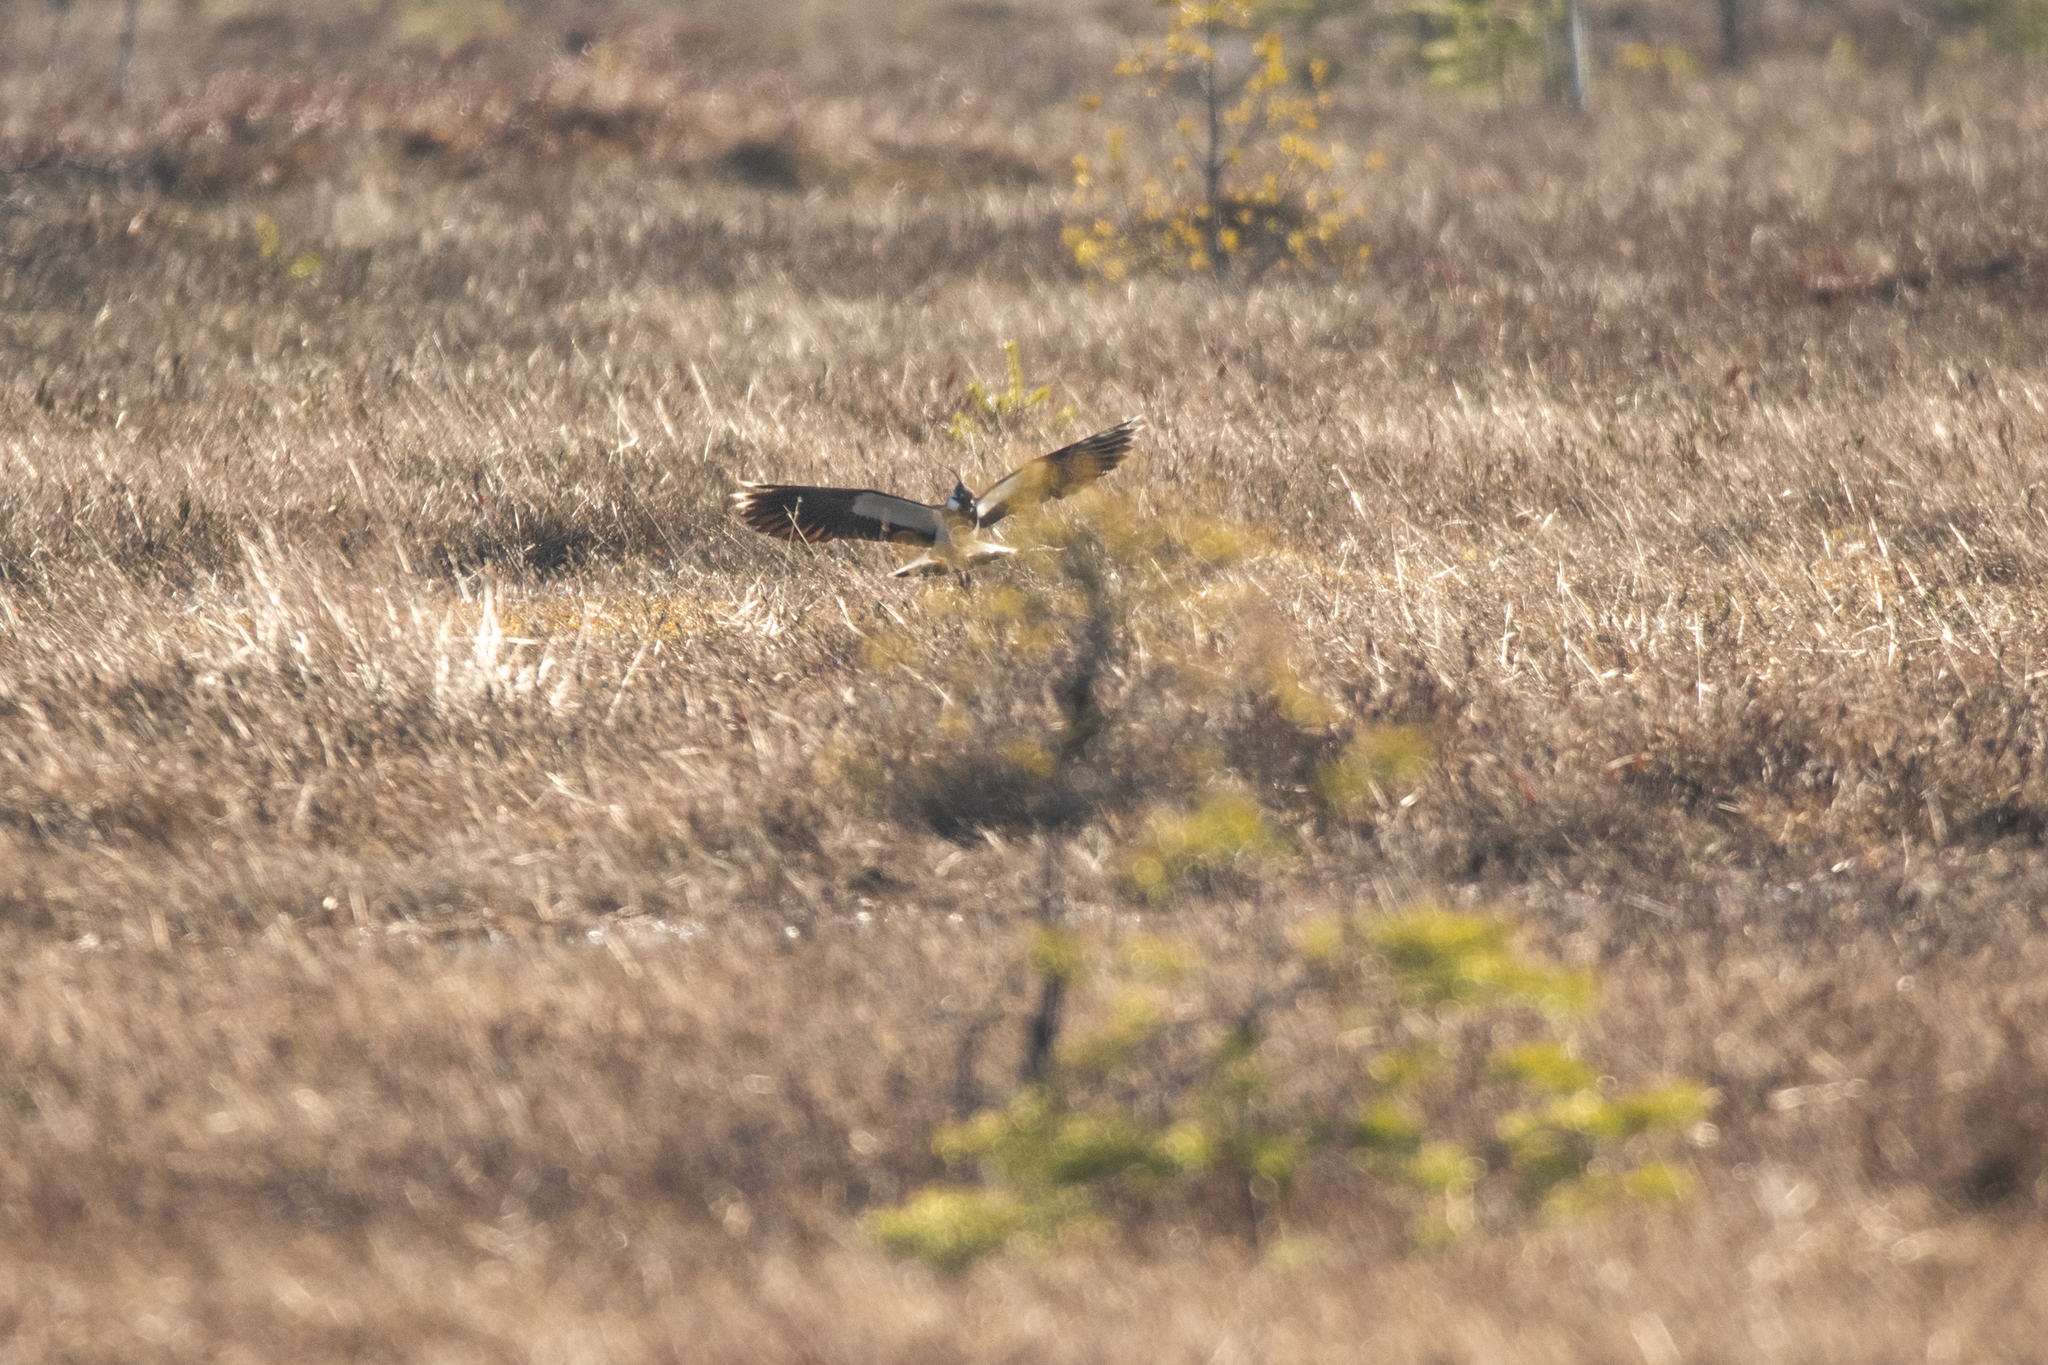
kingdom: Animalia
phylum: Chordata
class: Aves
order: Charadriiformes
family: Charadriidae
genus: Vanellus
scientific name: Vanellus vanellus
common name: Northern lapwing
